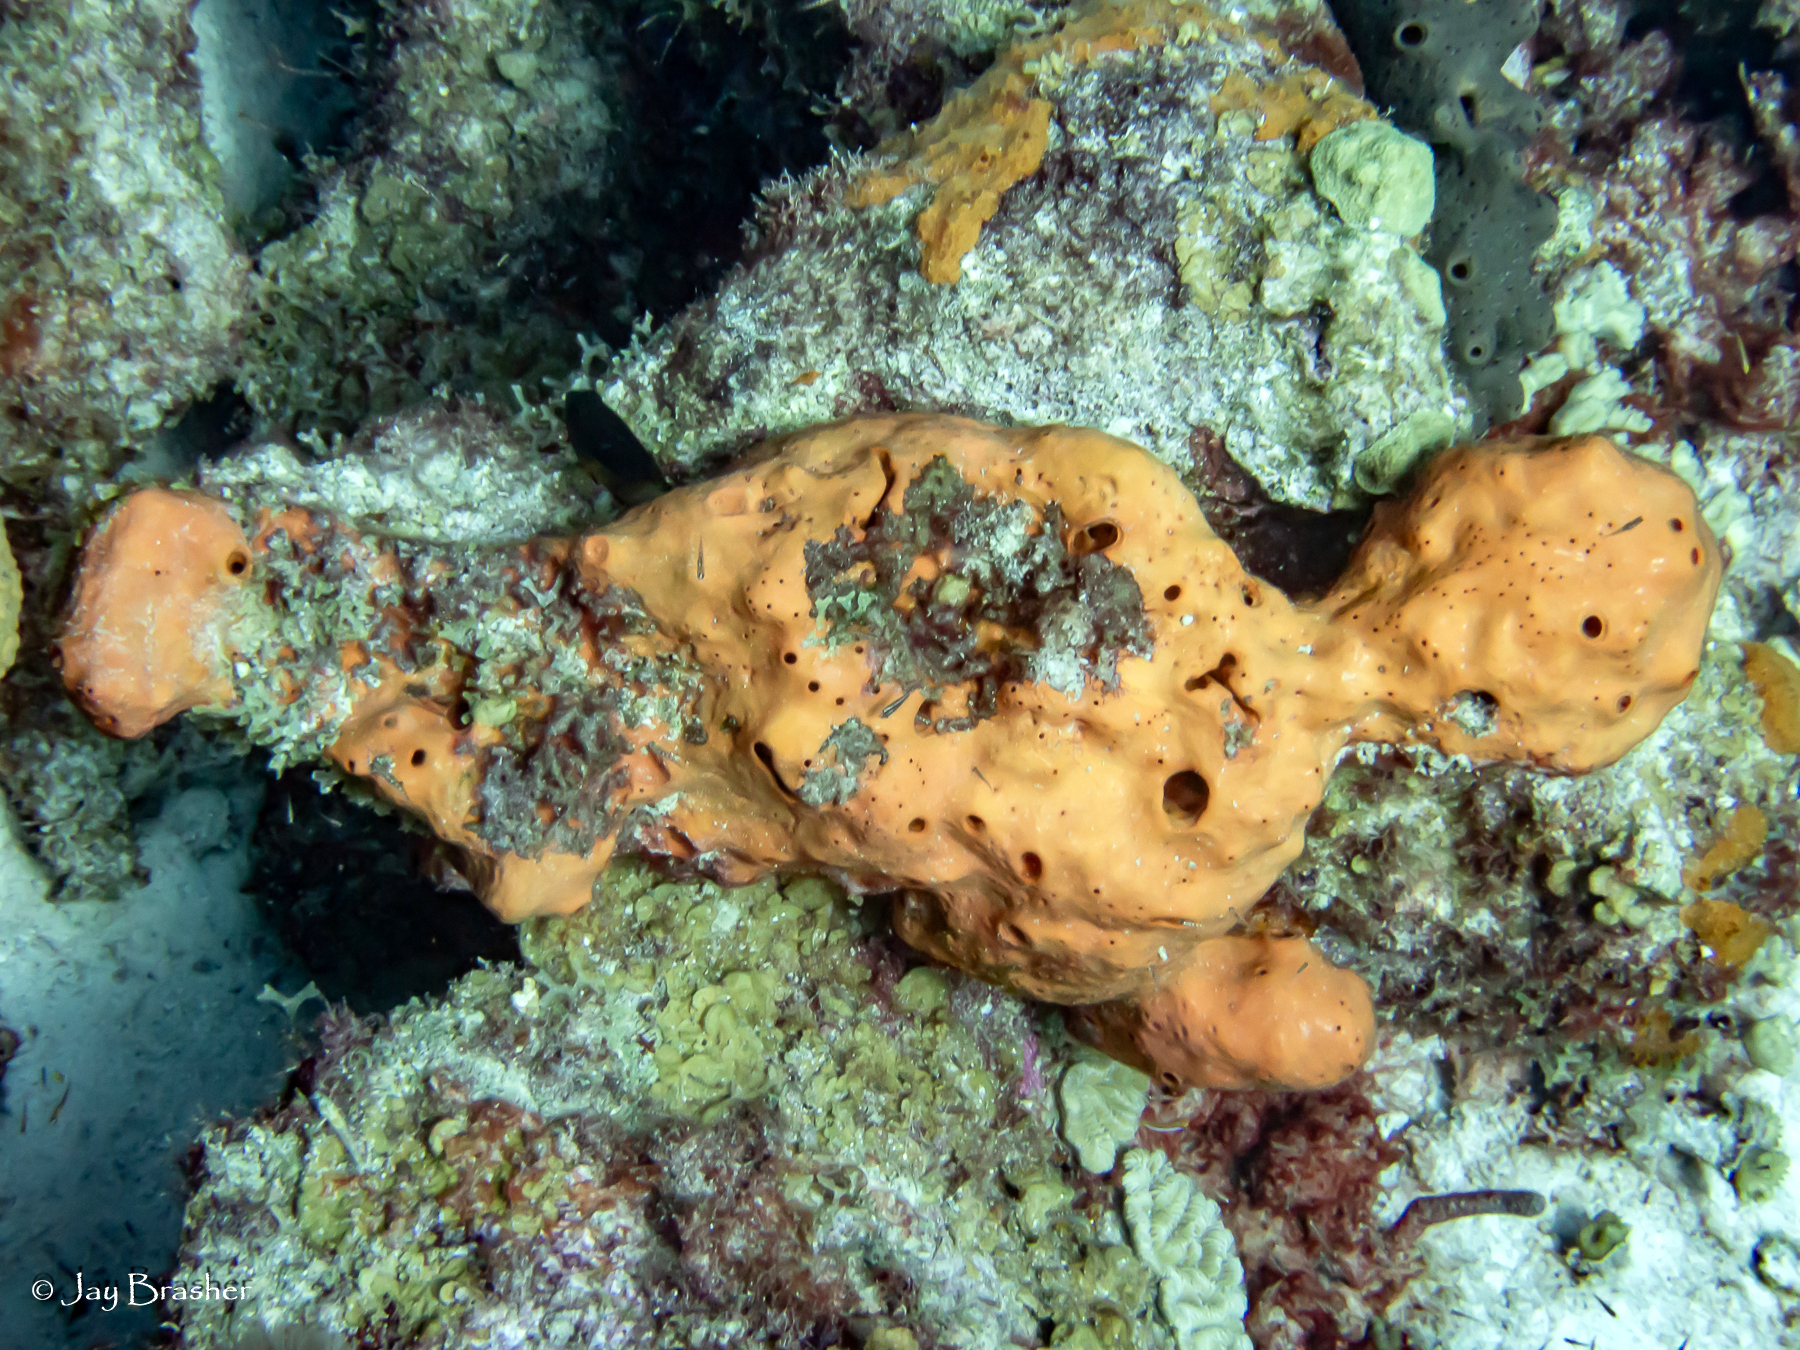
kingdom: Animalia
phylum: Porifera
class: Demospongiae
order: Agelasida
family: Agelasidae
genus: Agelas
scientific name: Agelas sventres
